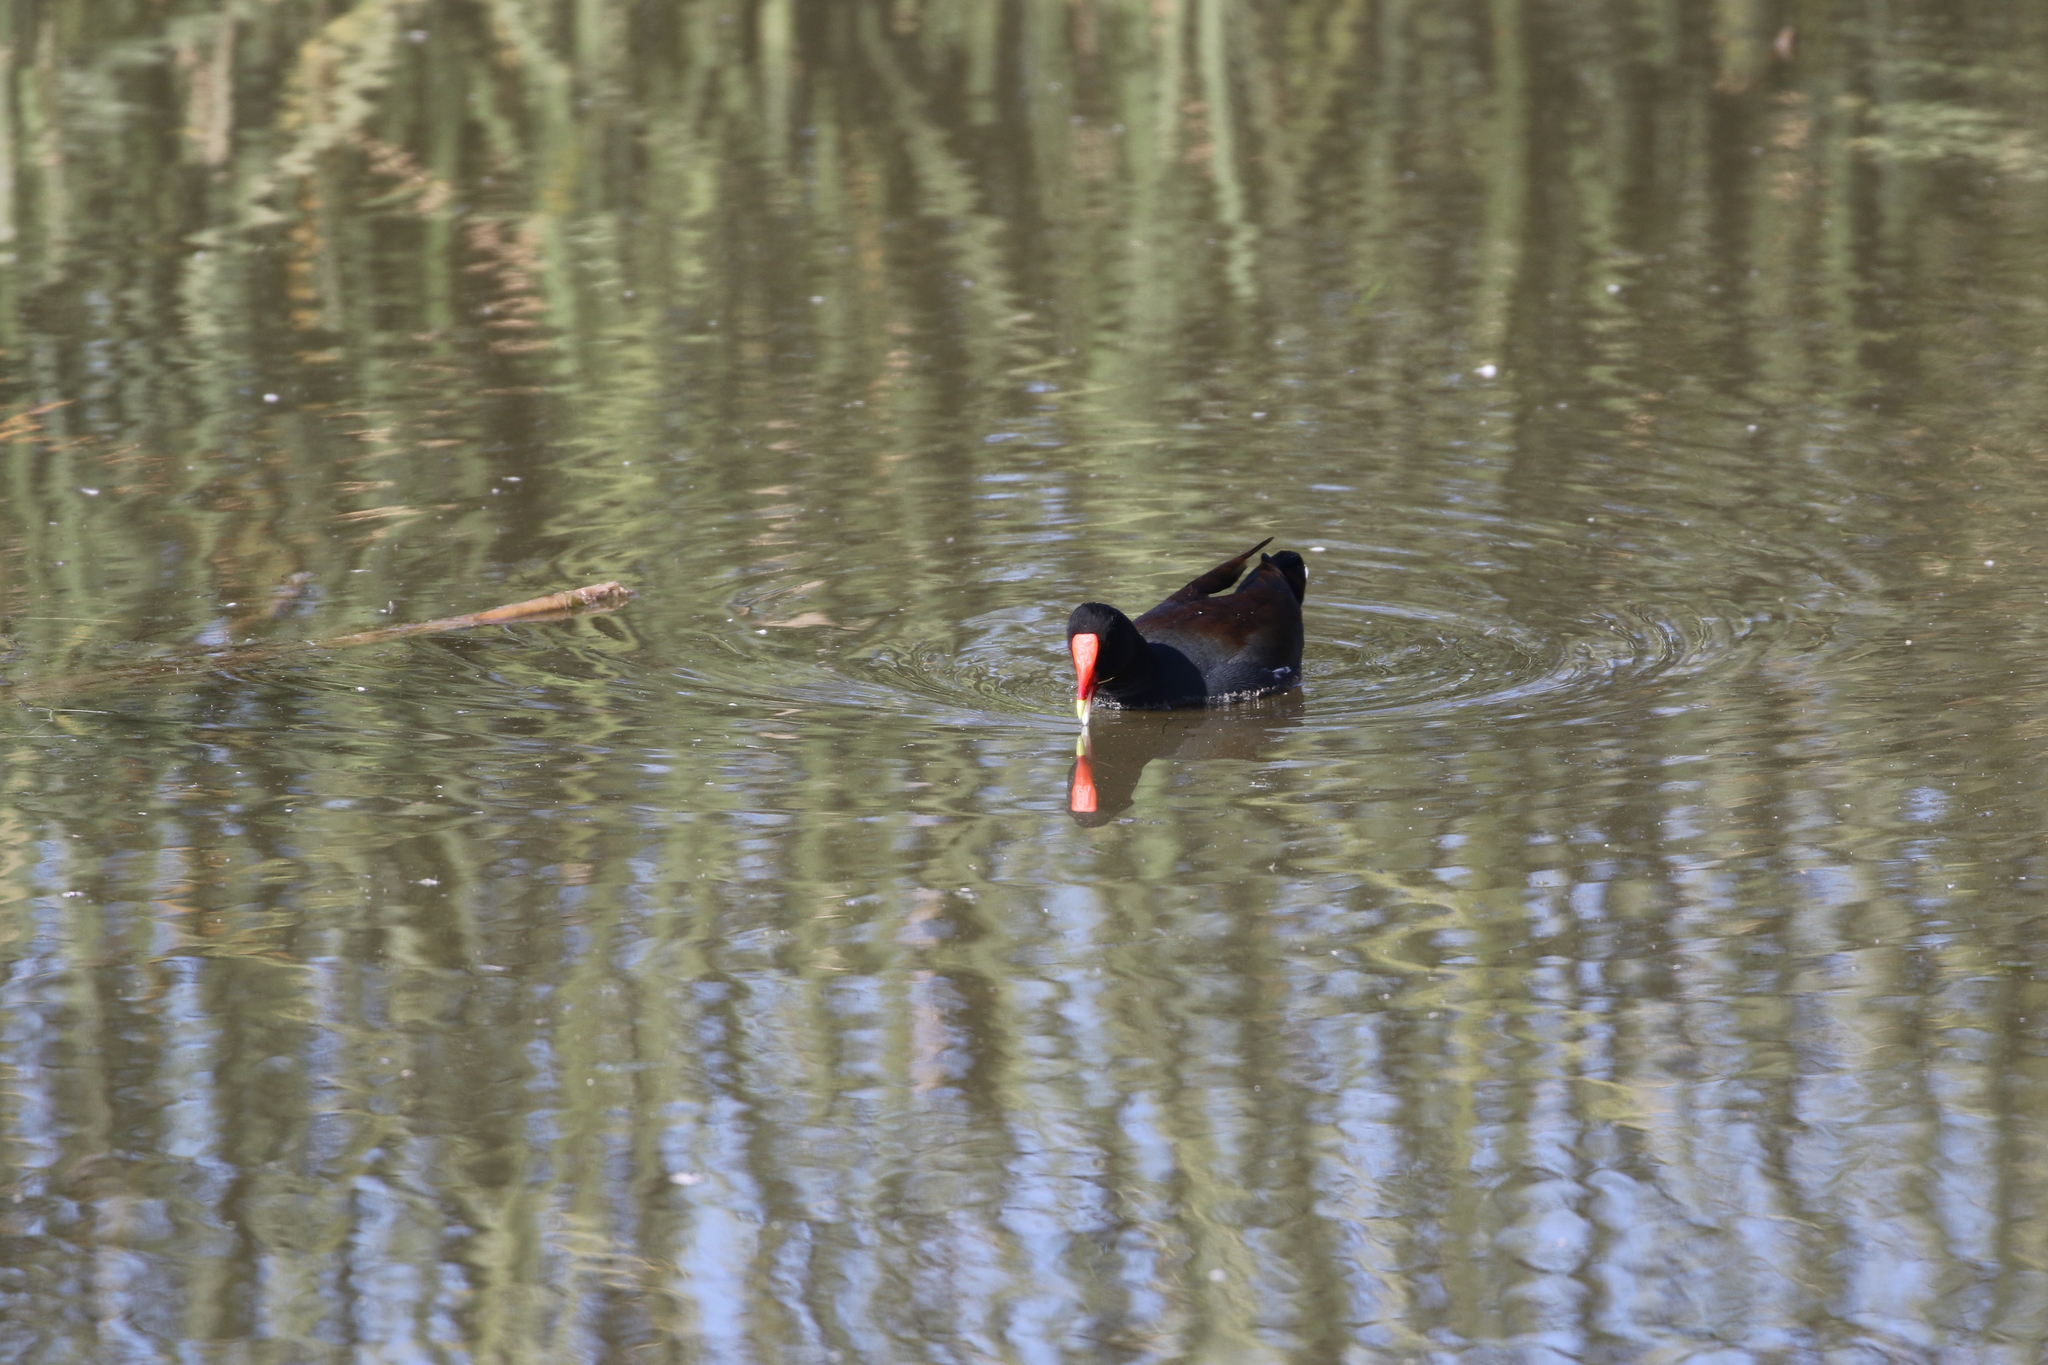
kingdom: Animalia
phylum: Chordata
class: Aves
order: Gruiformes
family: Rallidae
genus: Gallinula
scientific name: Gallinula chloropus
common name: Common moorhen
